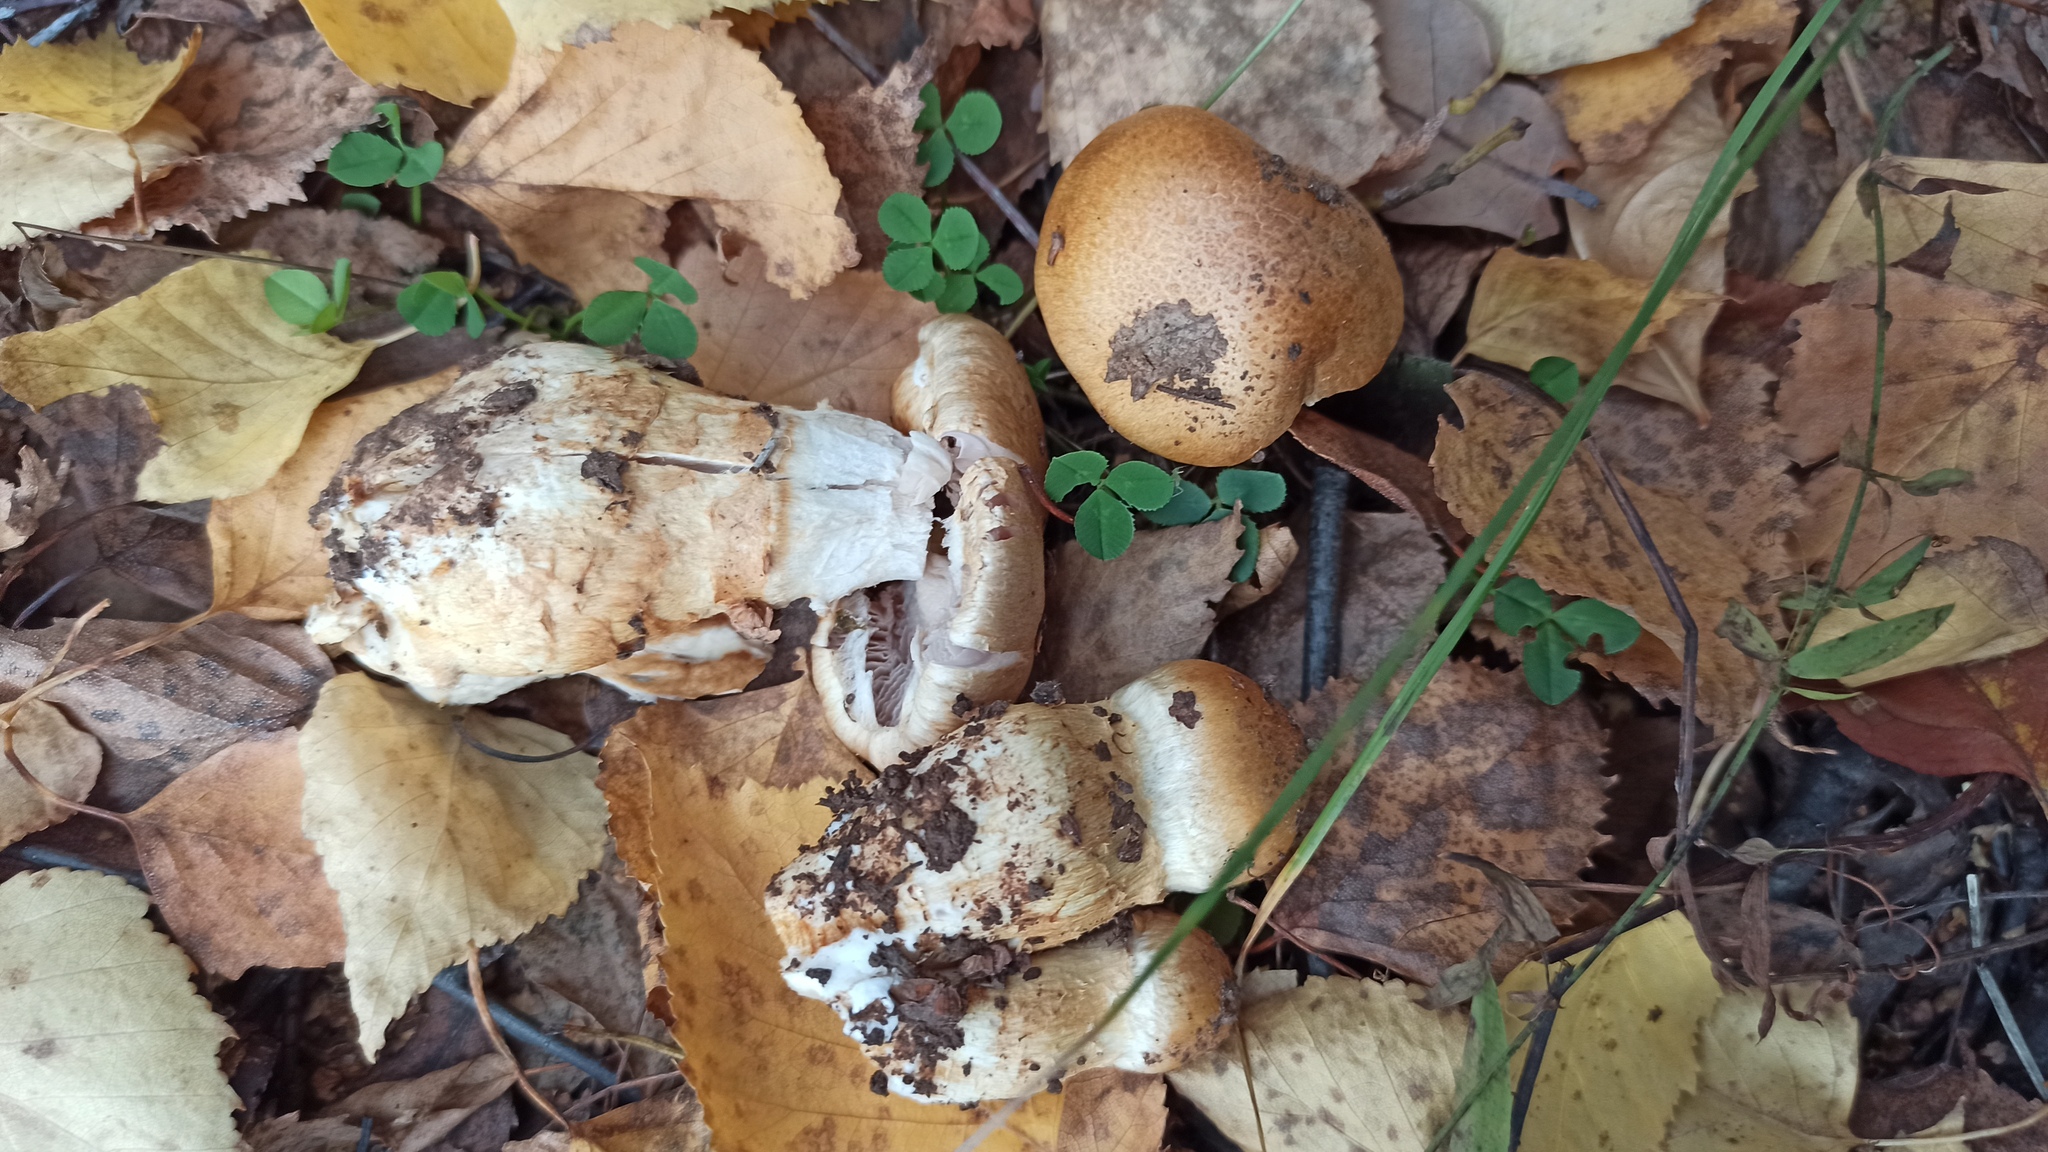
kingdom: Fungi
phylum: Basidiomycota
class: Agaricomycetes
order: Agaricales
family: Cortinariaceae
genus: Phlegmacium
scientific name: Phlegmacium triumphans
